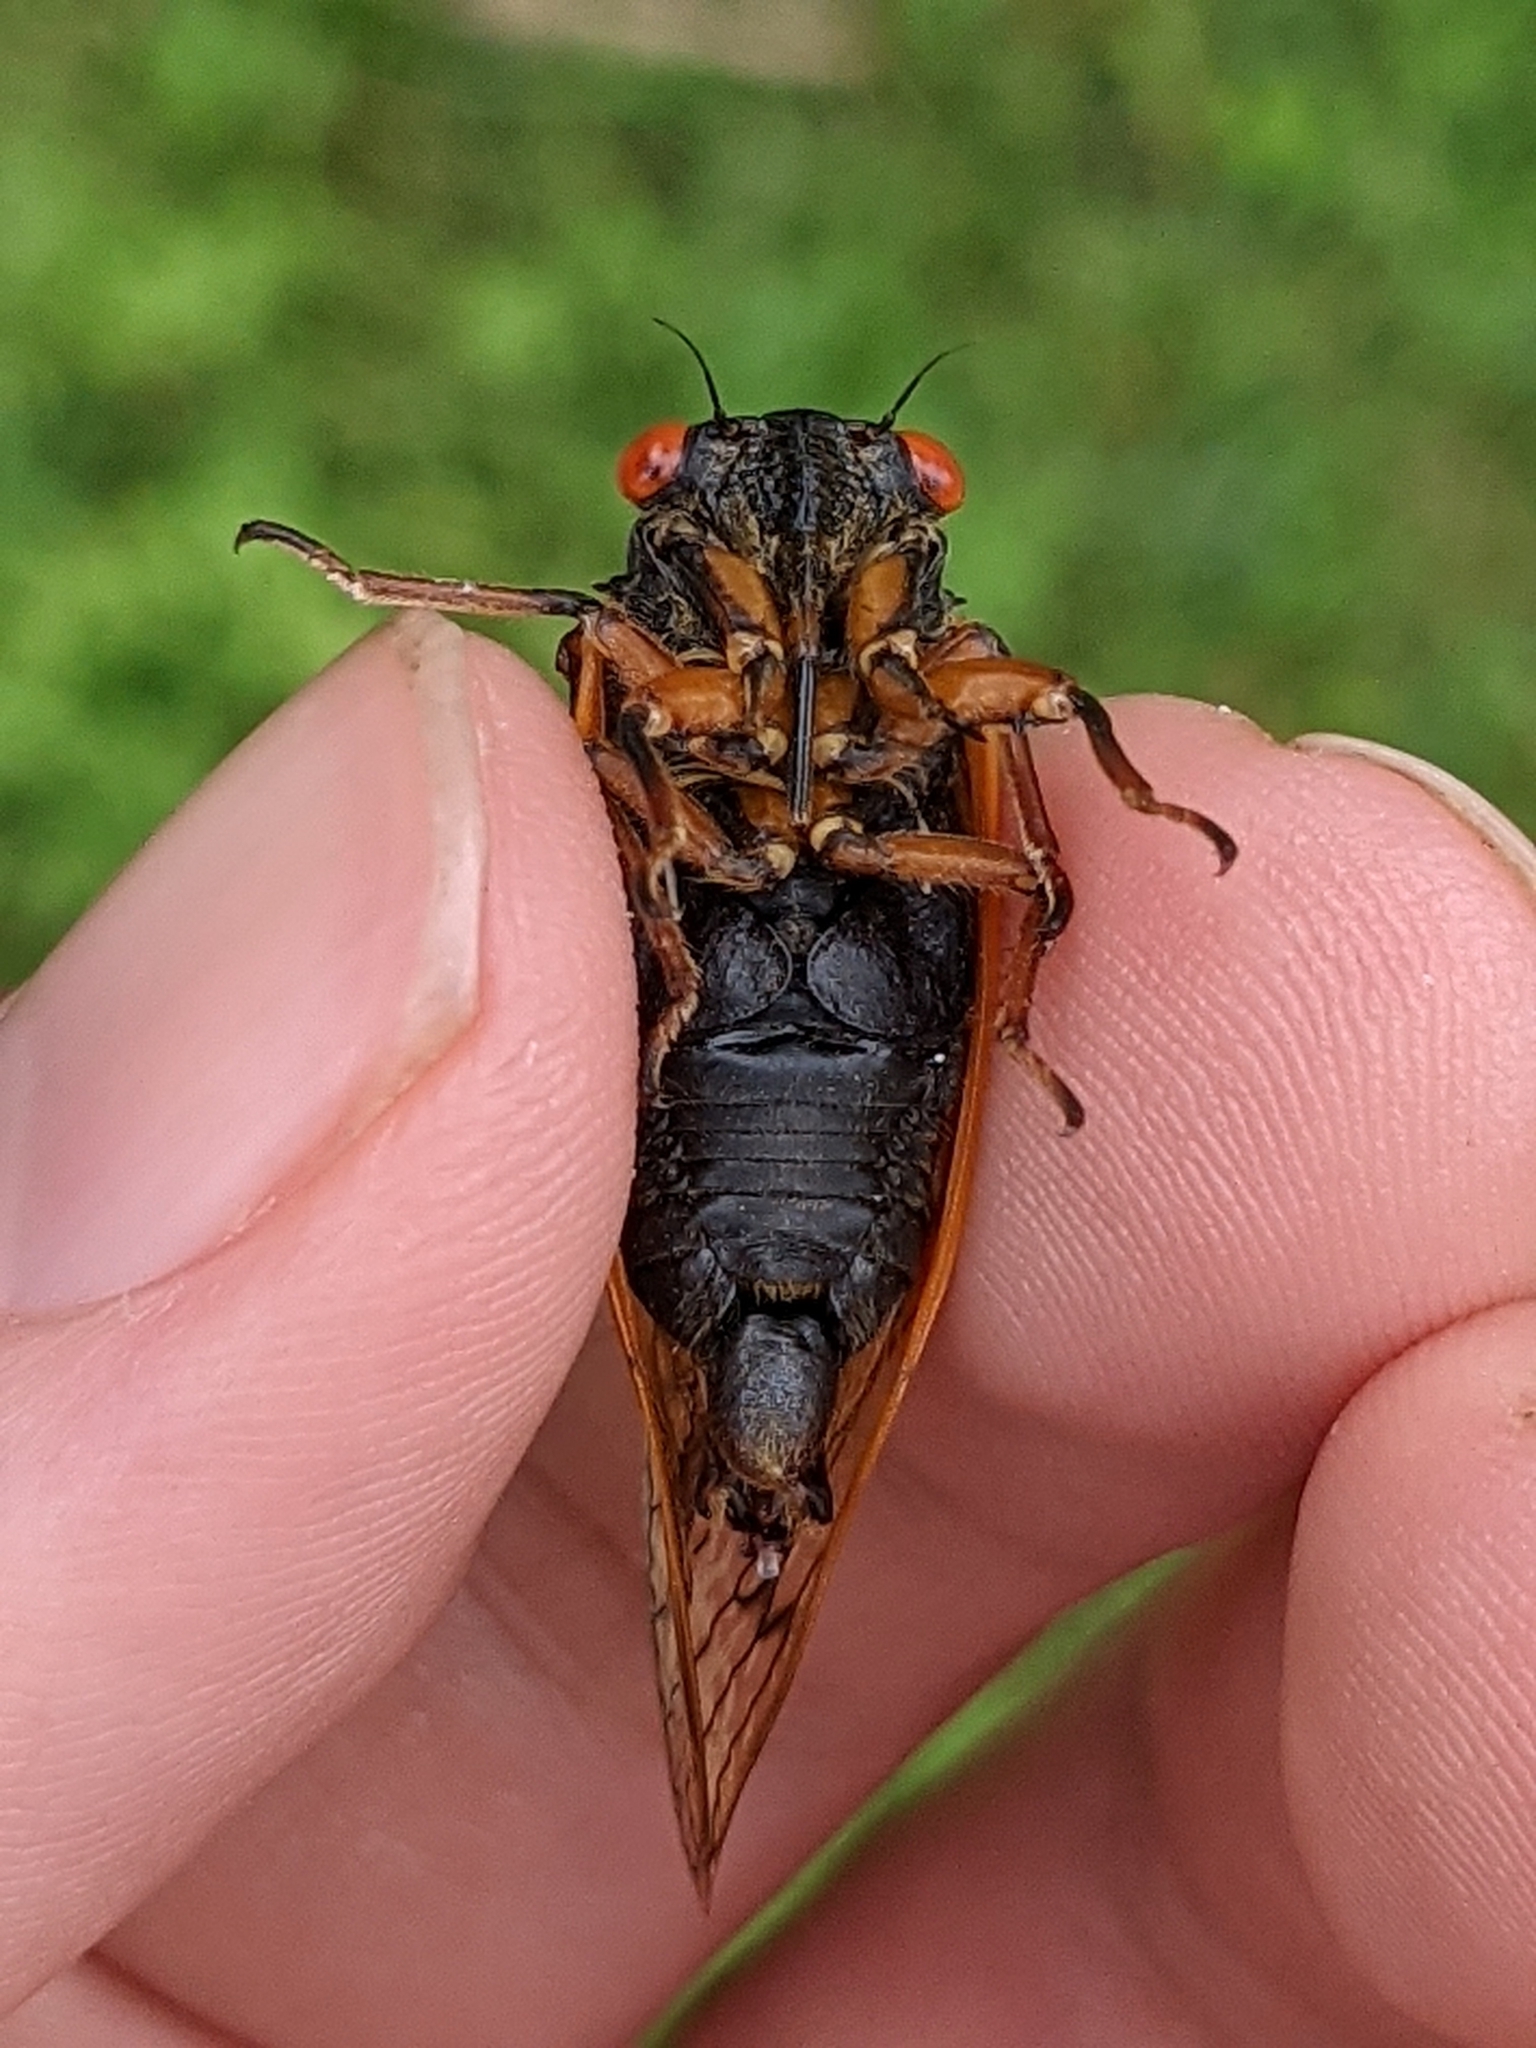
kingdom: Animalia
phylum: Arthropoda
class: Insecta
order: Hemiptera
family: Cicadidae
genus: Magicicada
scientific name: Magicicada cassini
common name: Cassin's 17-year cicada
